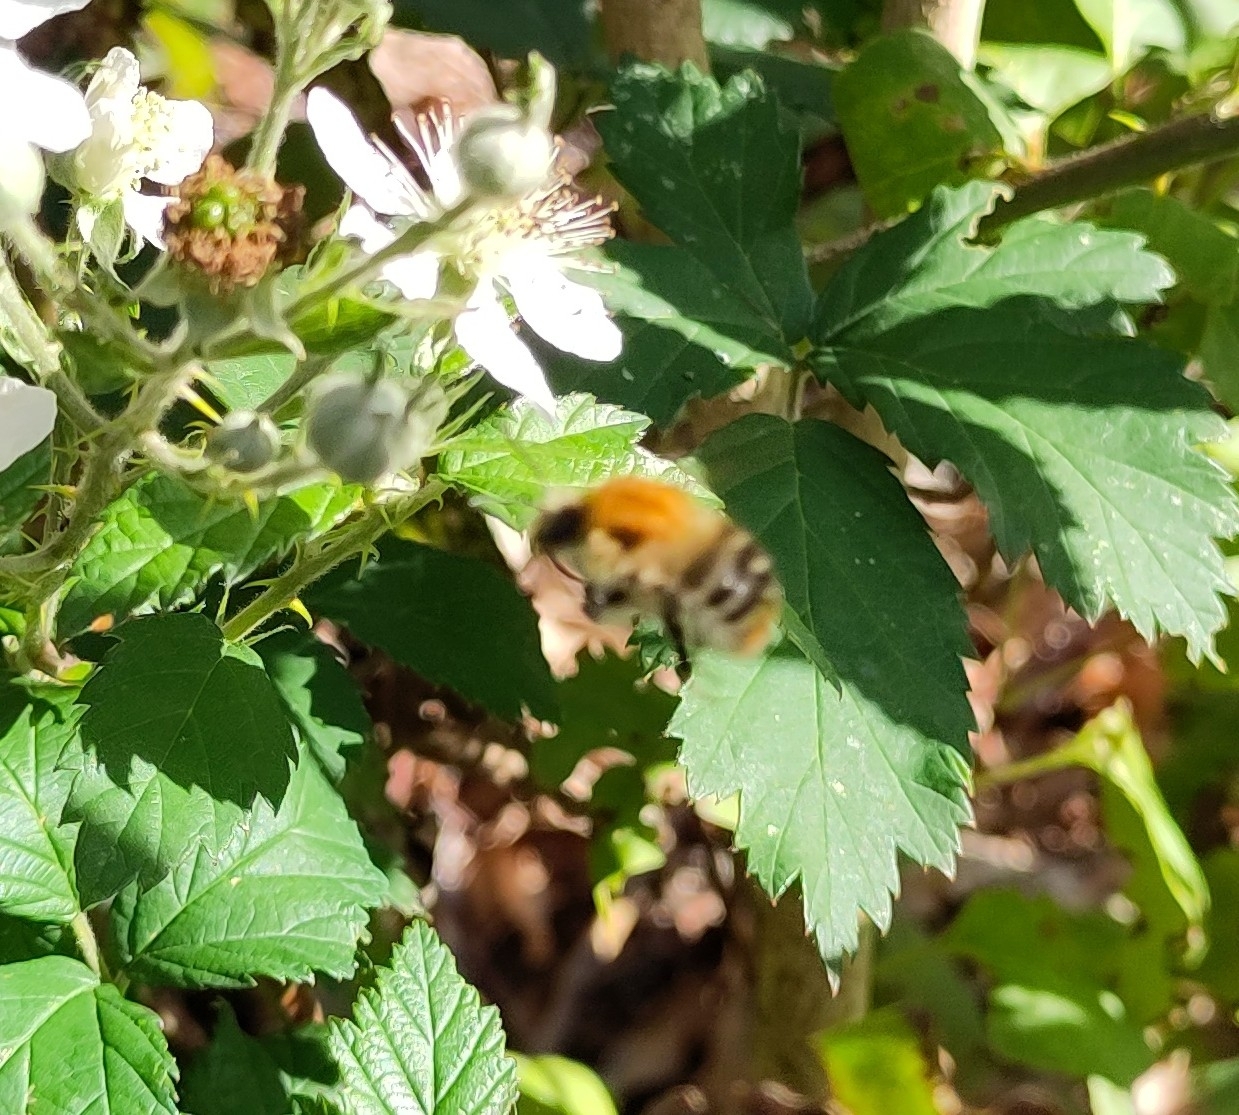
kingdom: Animalia
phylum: Arthropoda
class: Insecta
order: Hymenoptera
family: Apidae
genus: Bombus
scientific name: Bombus pascuorum
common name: Common carder bee
